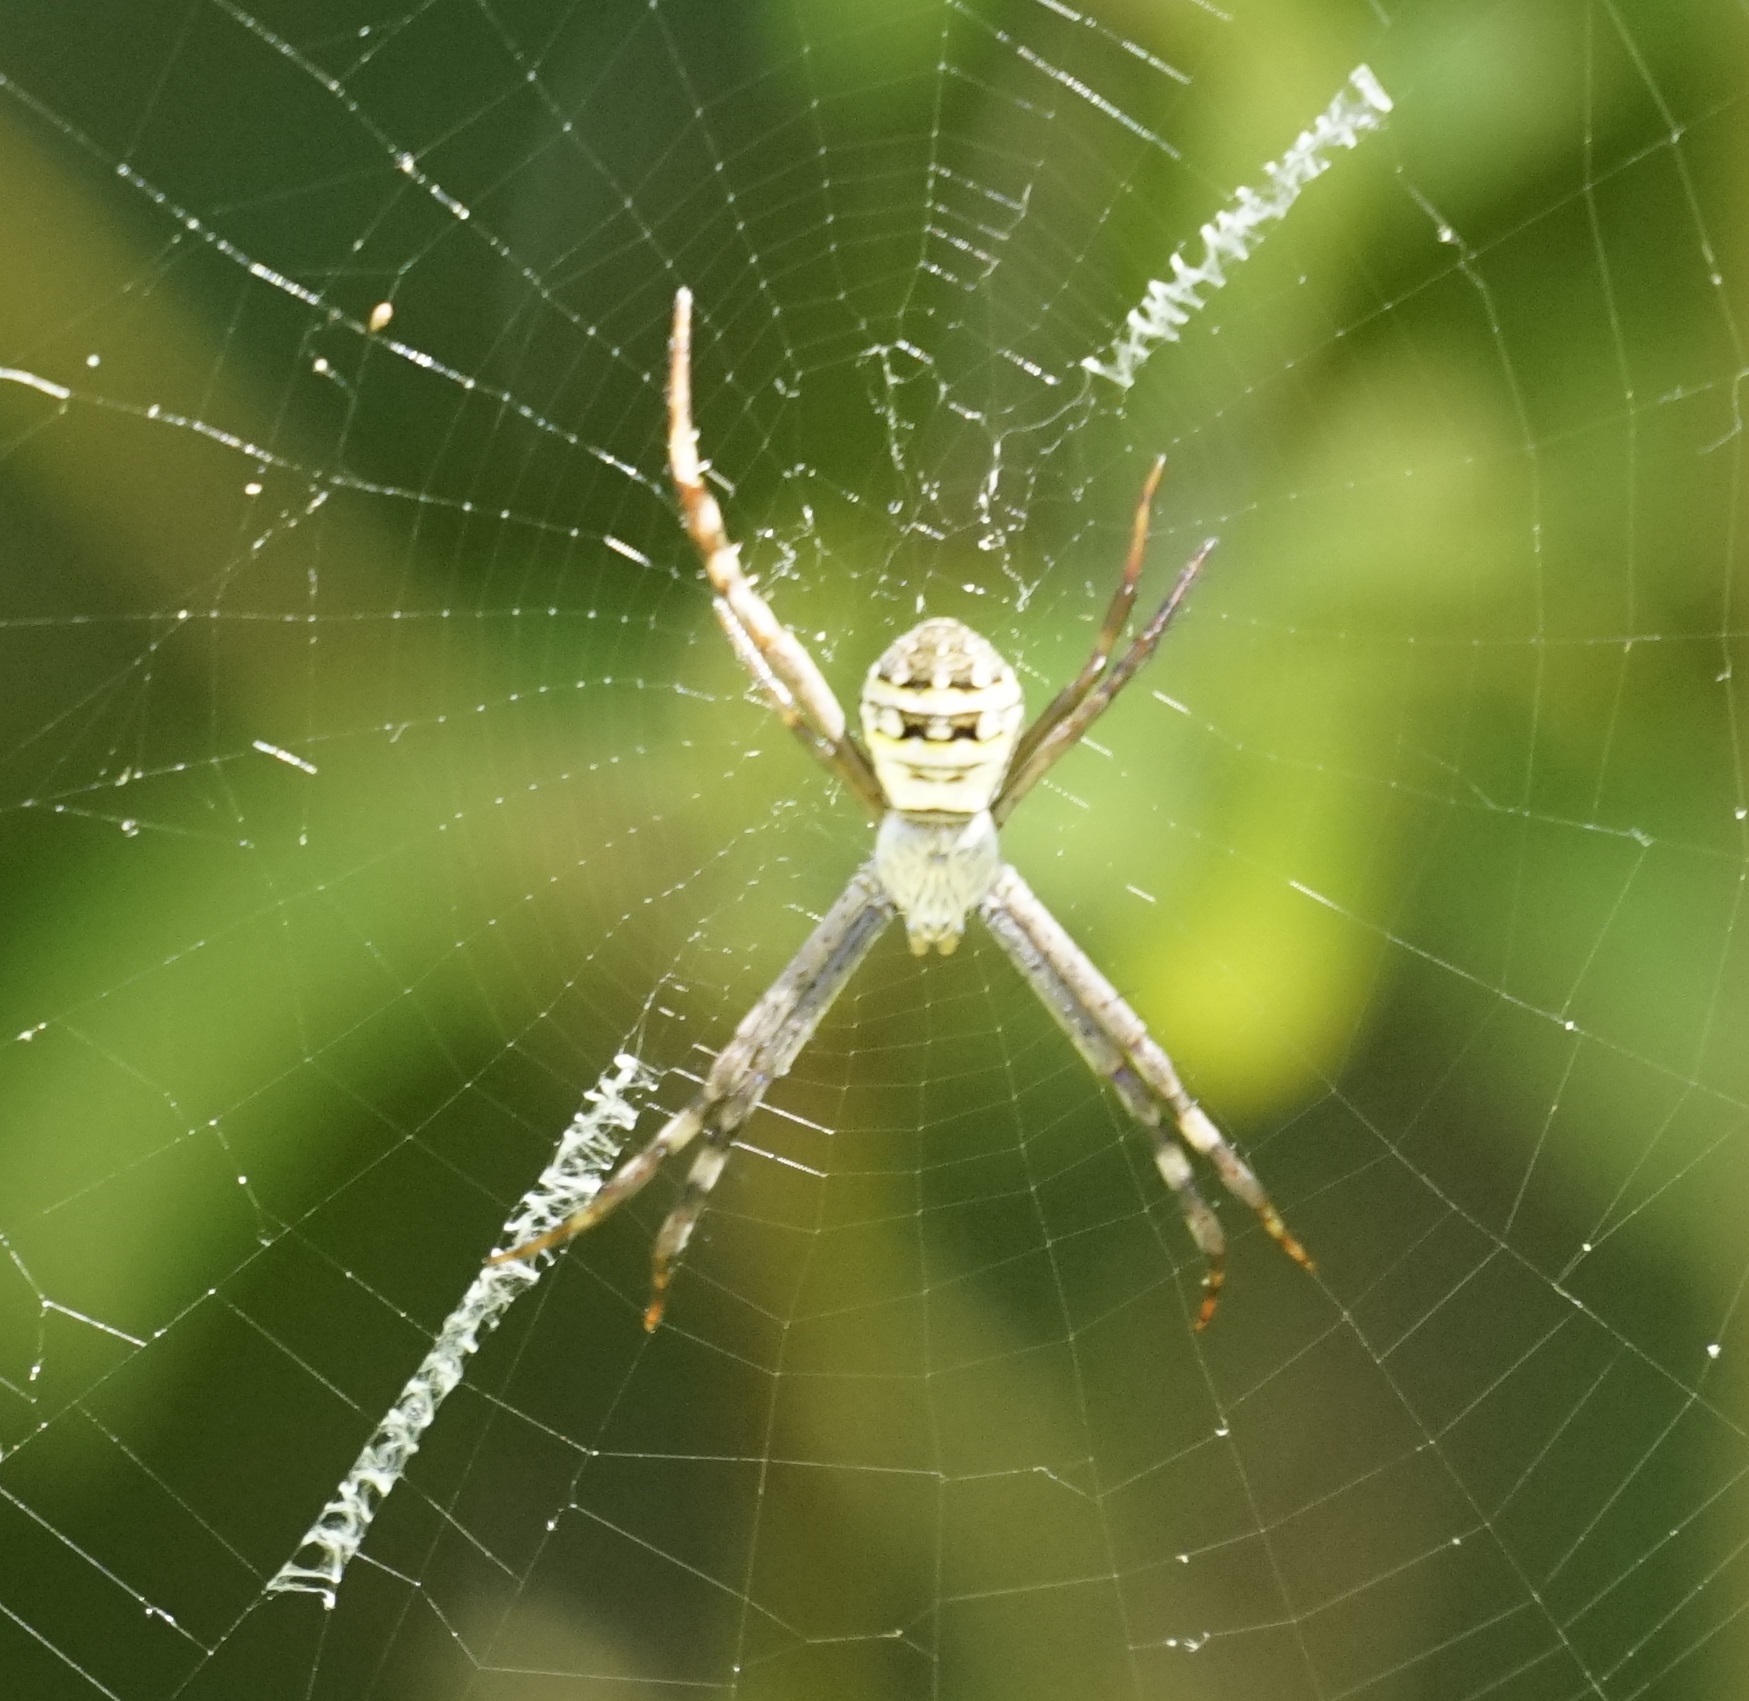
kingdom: Animalia
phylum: Arthropoda
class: Arachnida
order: Araneae
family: Araneidae
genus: Argiope
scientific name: Argiope keyserlingi
